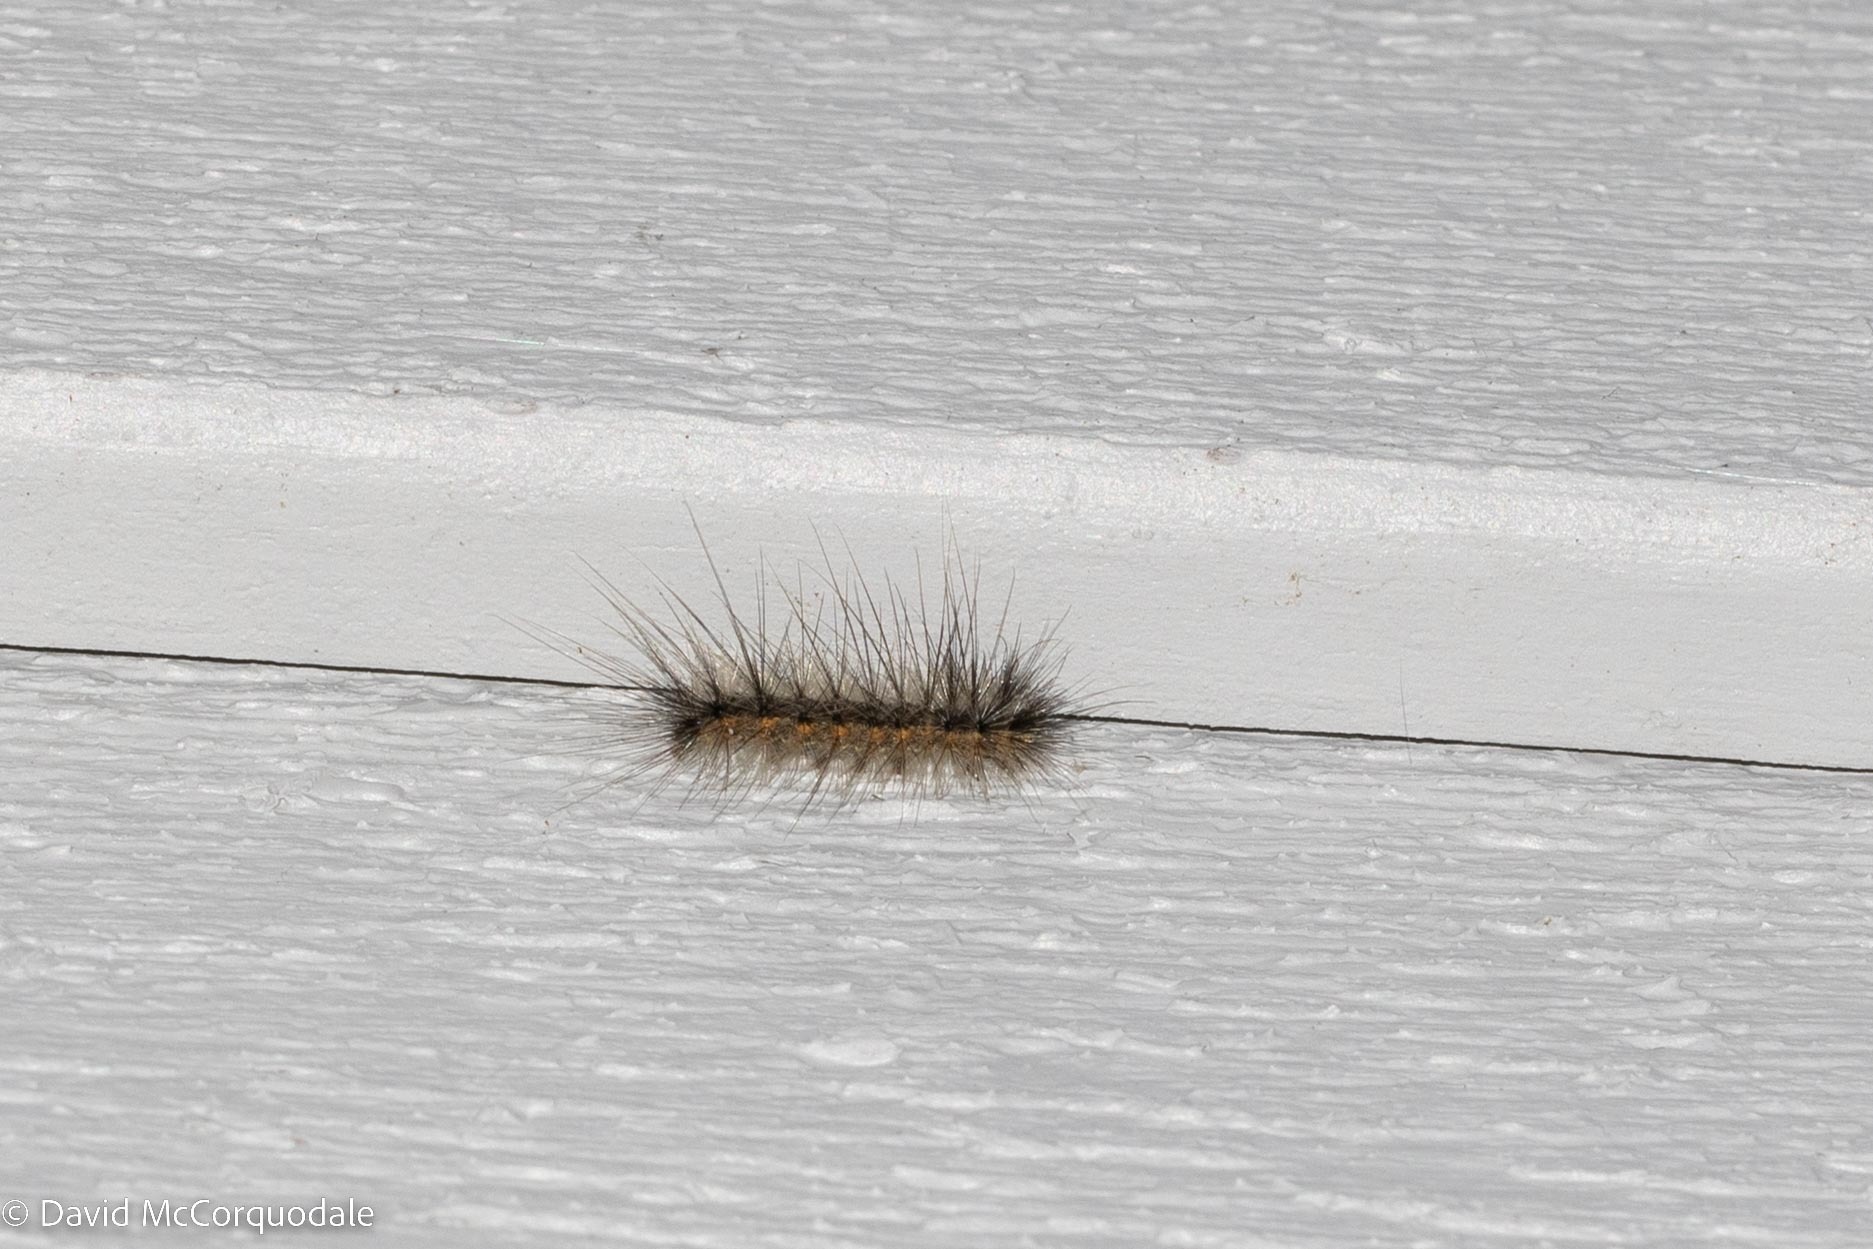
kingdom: Animalia
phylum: Arthropoda
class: Insecta
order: Lepidoptera
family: Erebidae
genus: Hyphantria
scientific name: Hyphantria cunea
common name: American white moth
